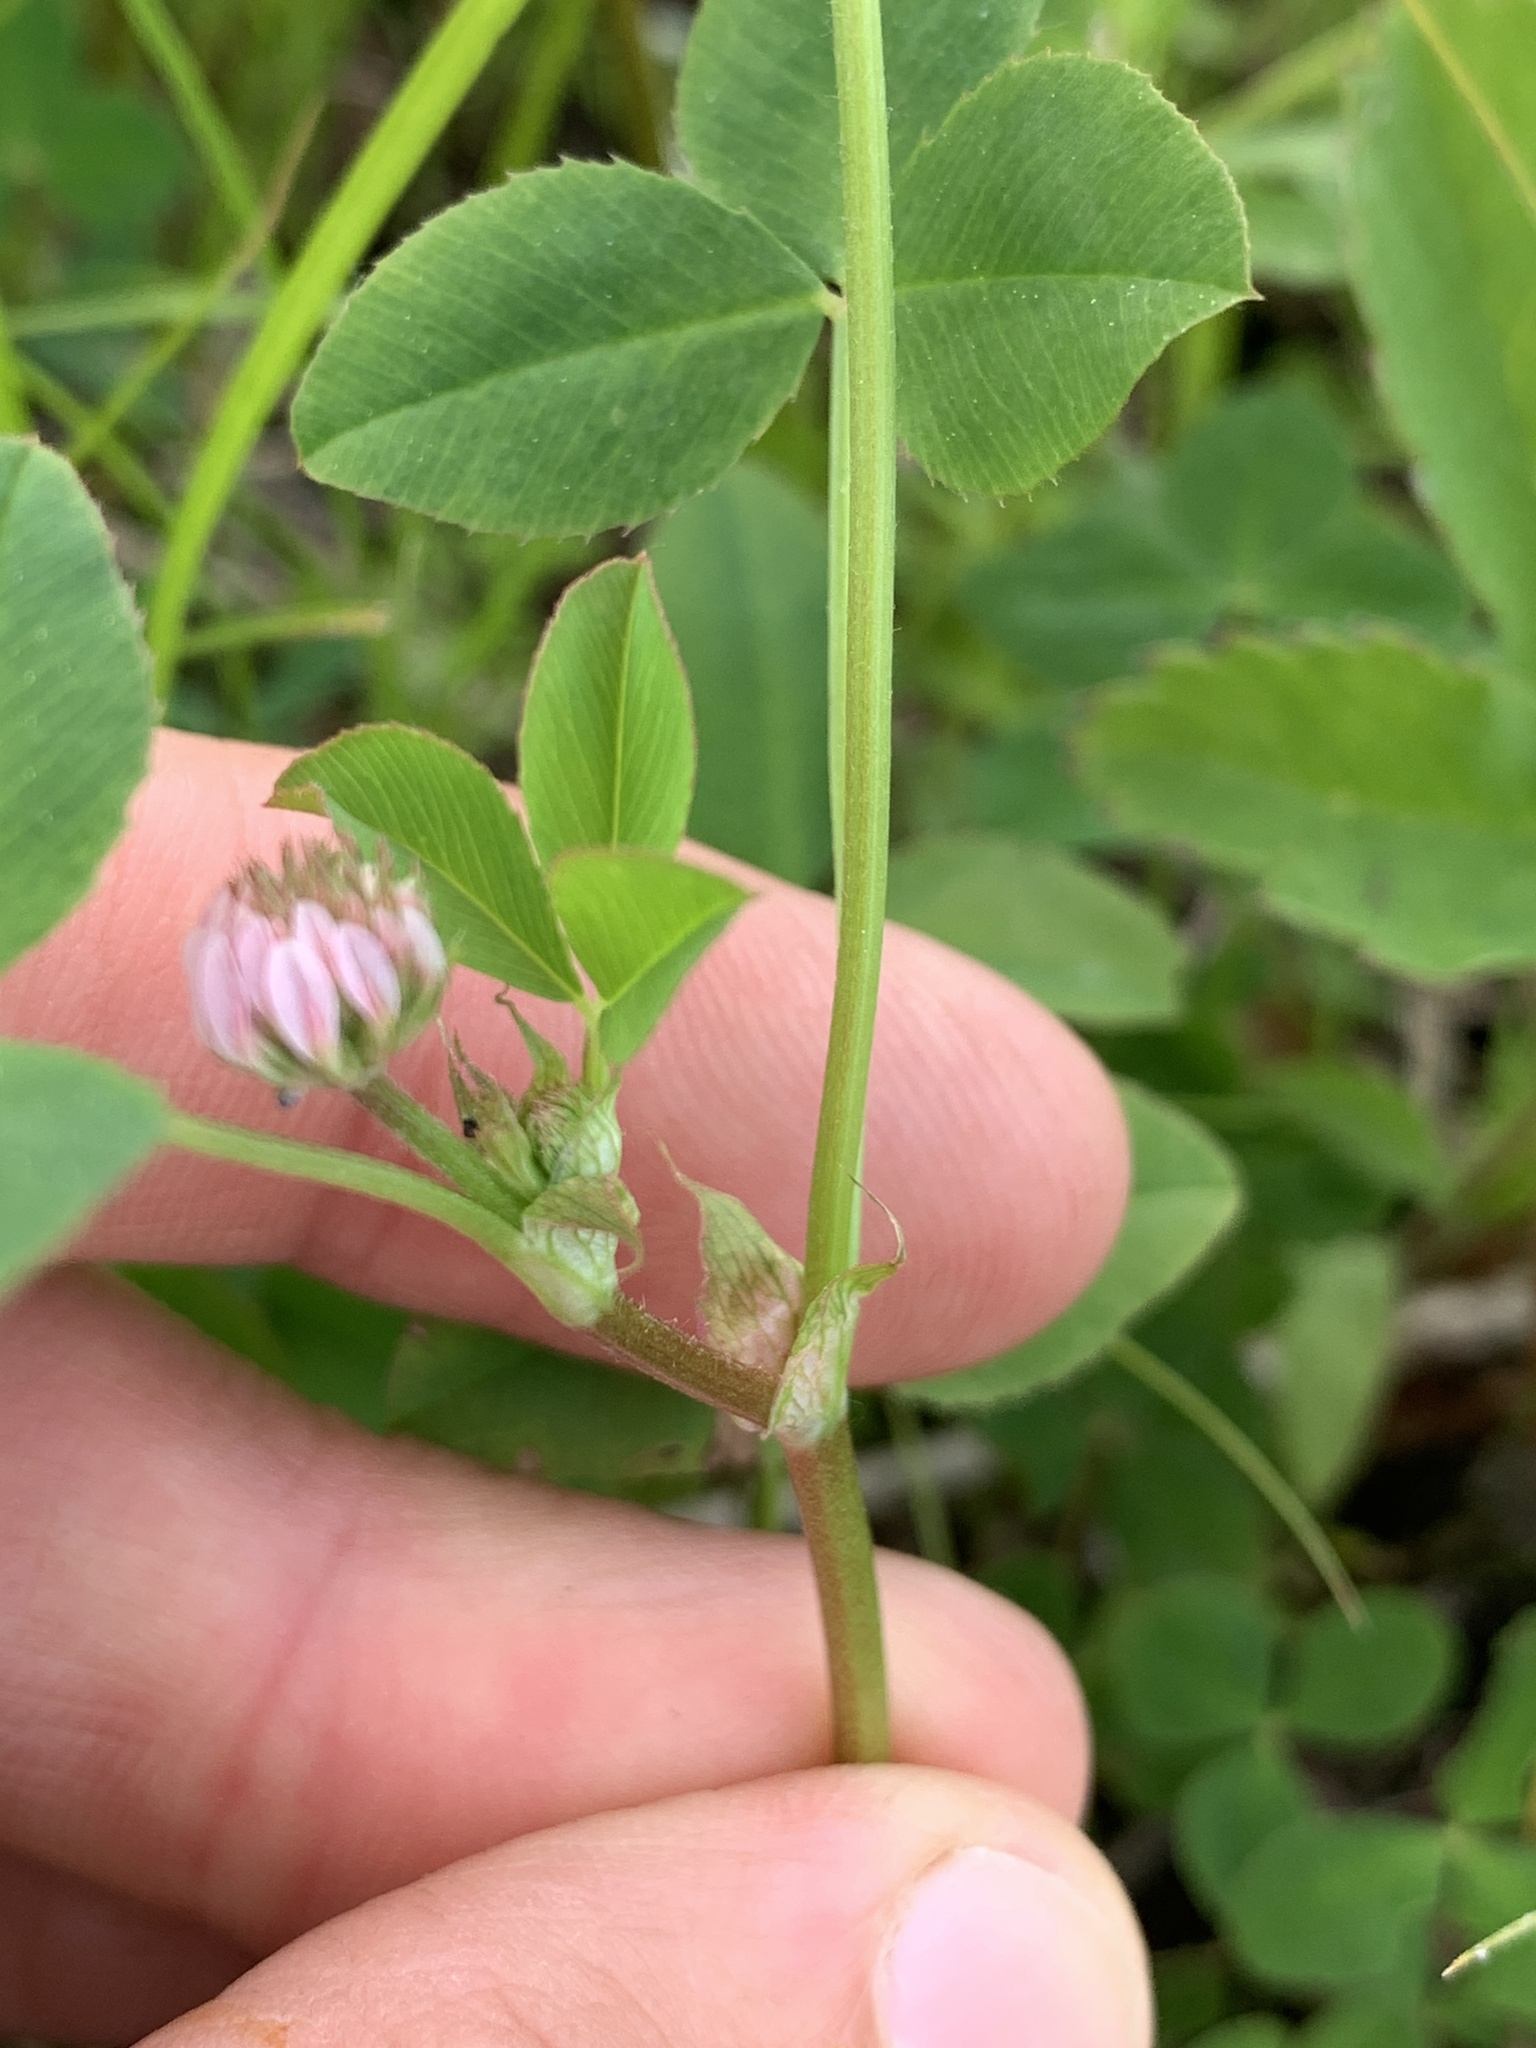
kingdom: Plantae
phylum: Tracheophyta
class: Magnoliopsida
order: Fabales
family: Fabaceae
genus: Trifolium
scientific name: Trifolium hybridum
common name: Alsike clover
